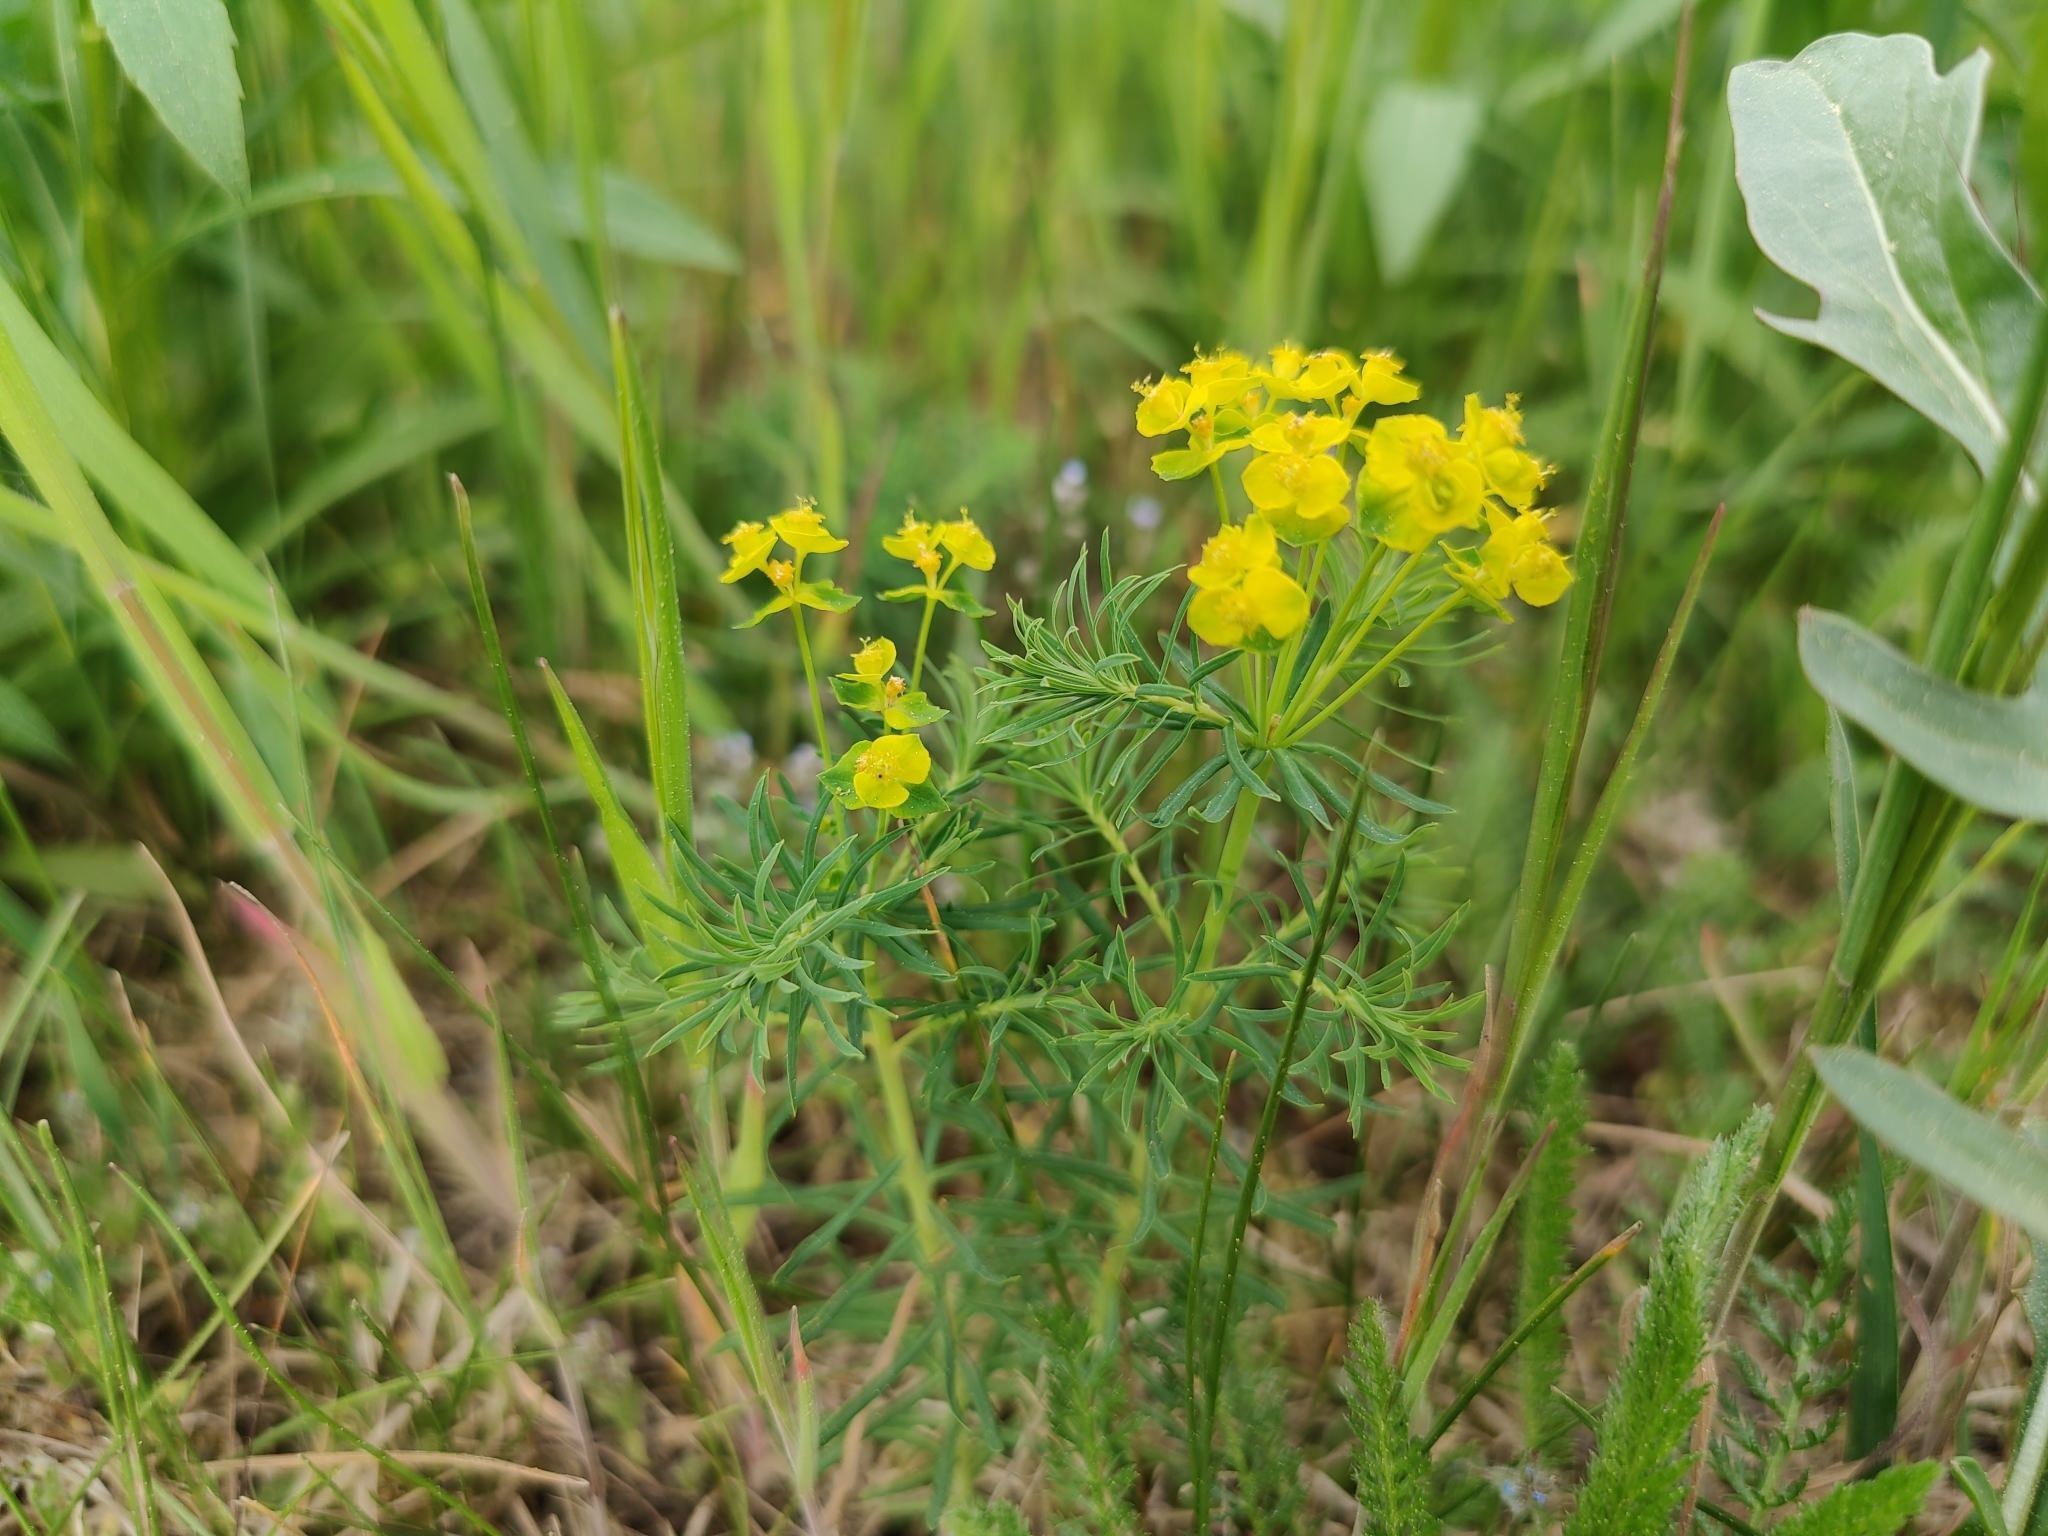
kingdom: Plantae
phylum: Tracheophyta
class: Magnoliopsida
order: Malpighiales
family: Euphorbiaceae
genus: Euphorbia
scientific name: Euphorbia cyparissias
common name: Cypress spurge
